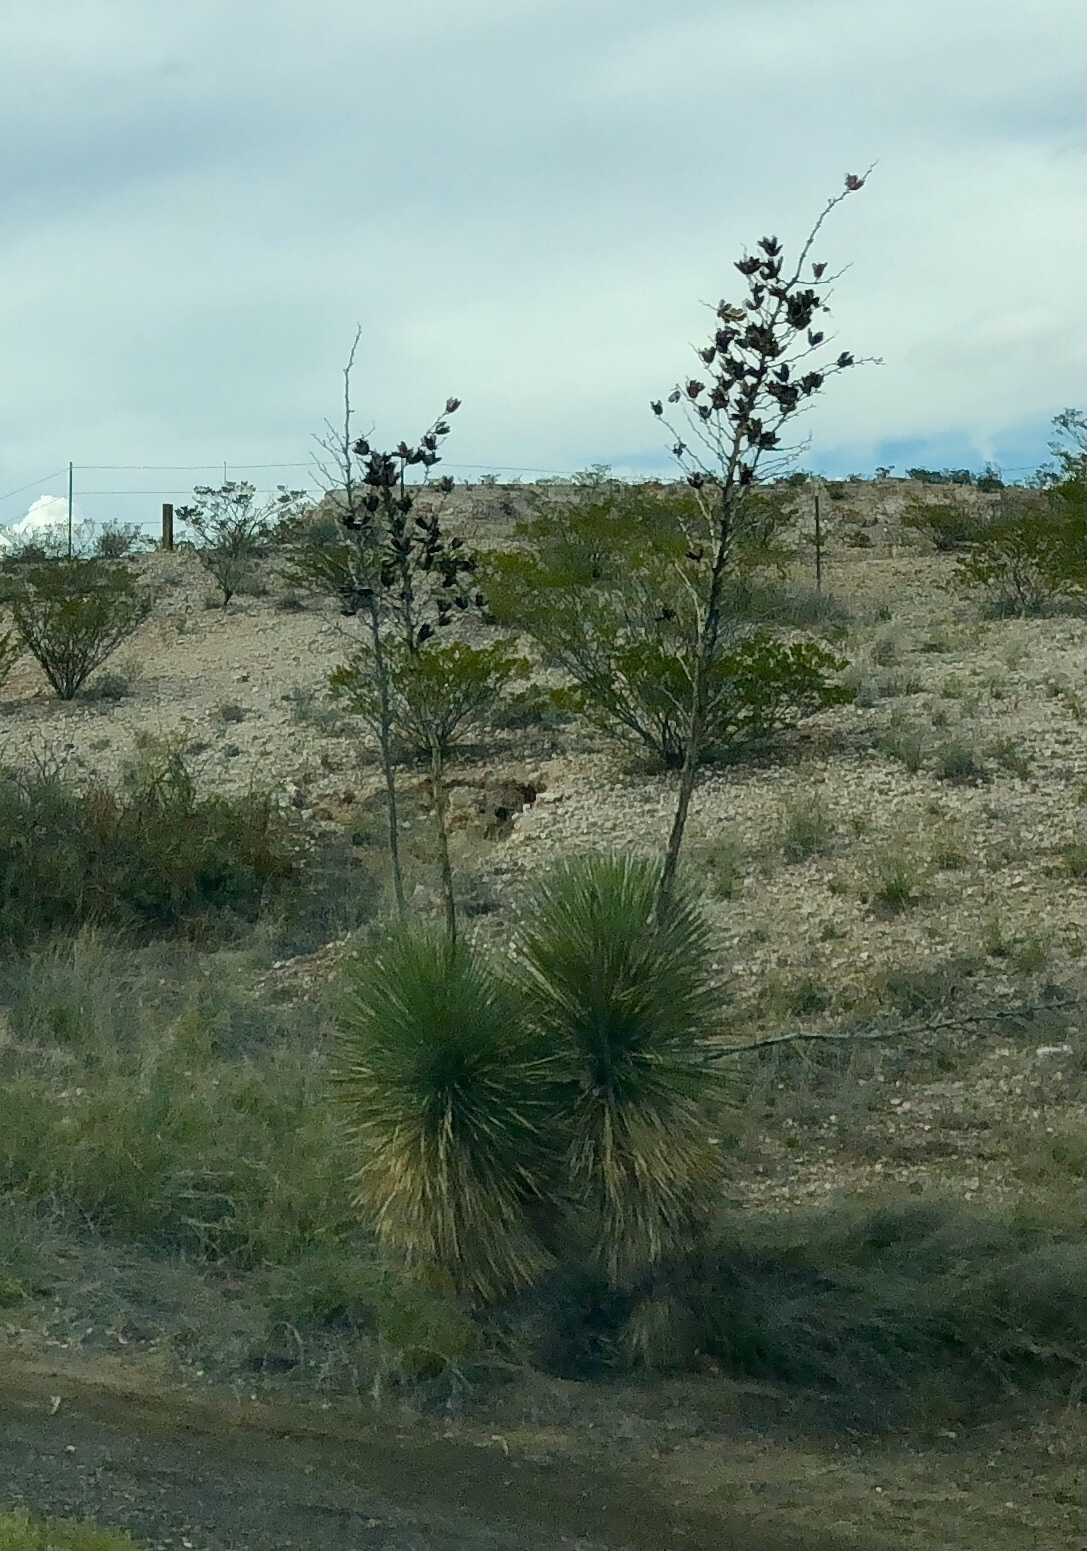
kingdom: Plantae
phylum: Tracheophyta
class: Liliopsida
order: Asparagales
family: Asparagaceae
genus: Yucca
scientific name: Yucca elata
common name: Palmella
